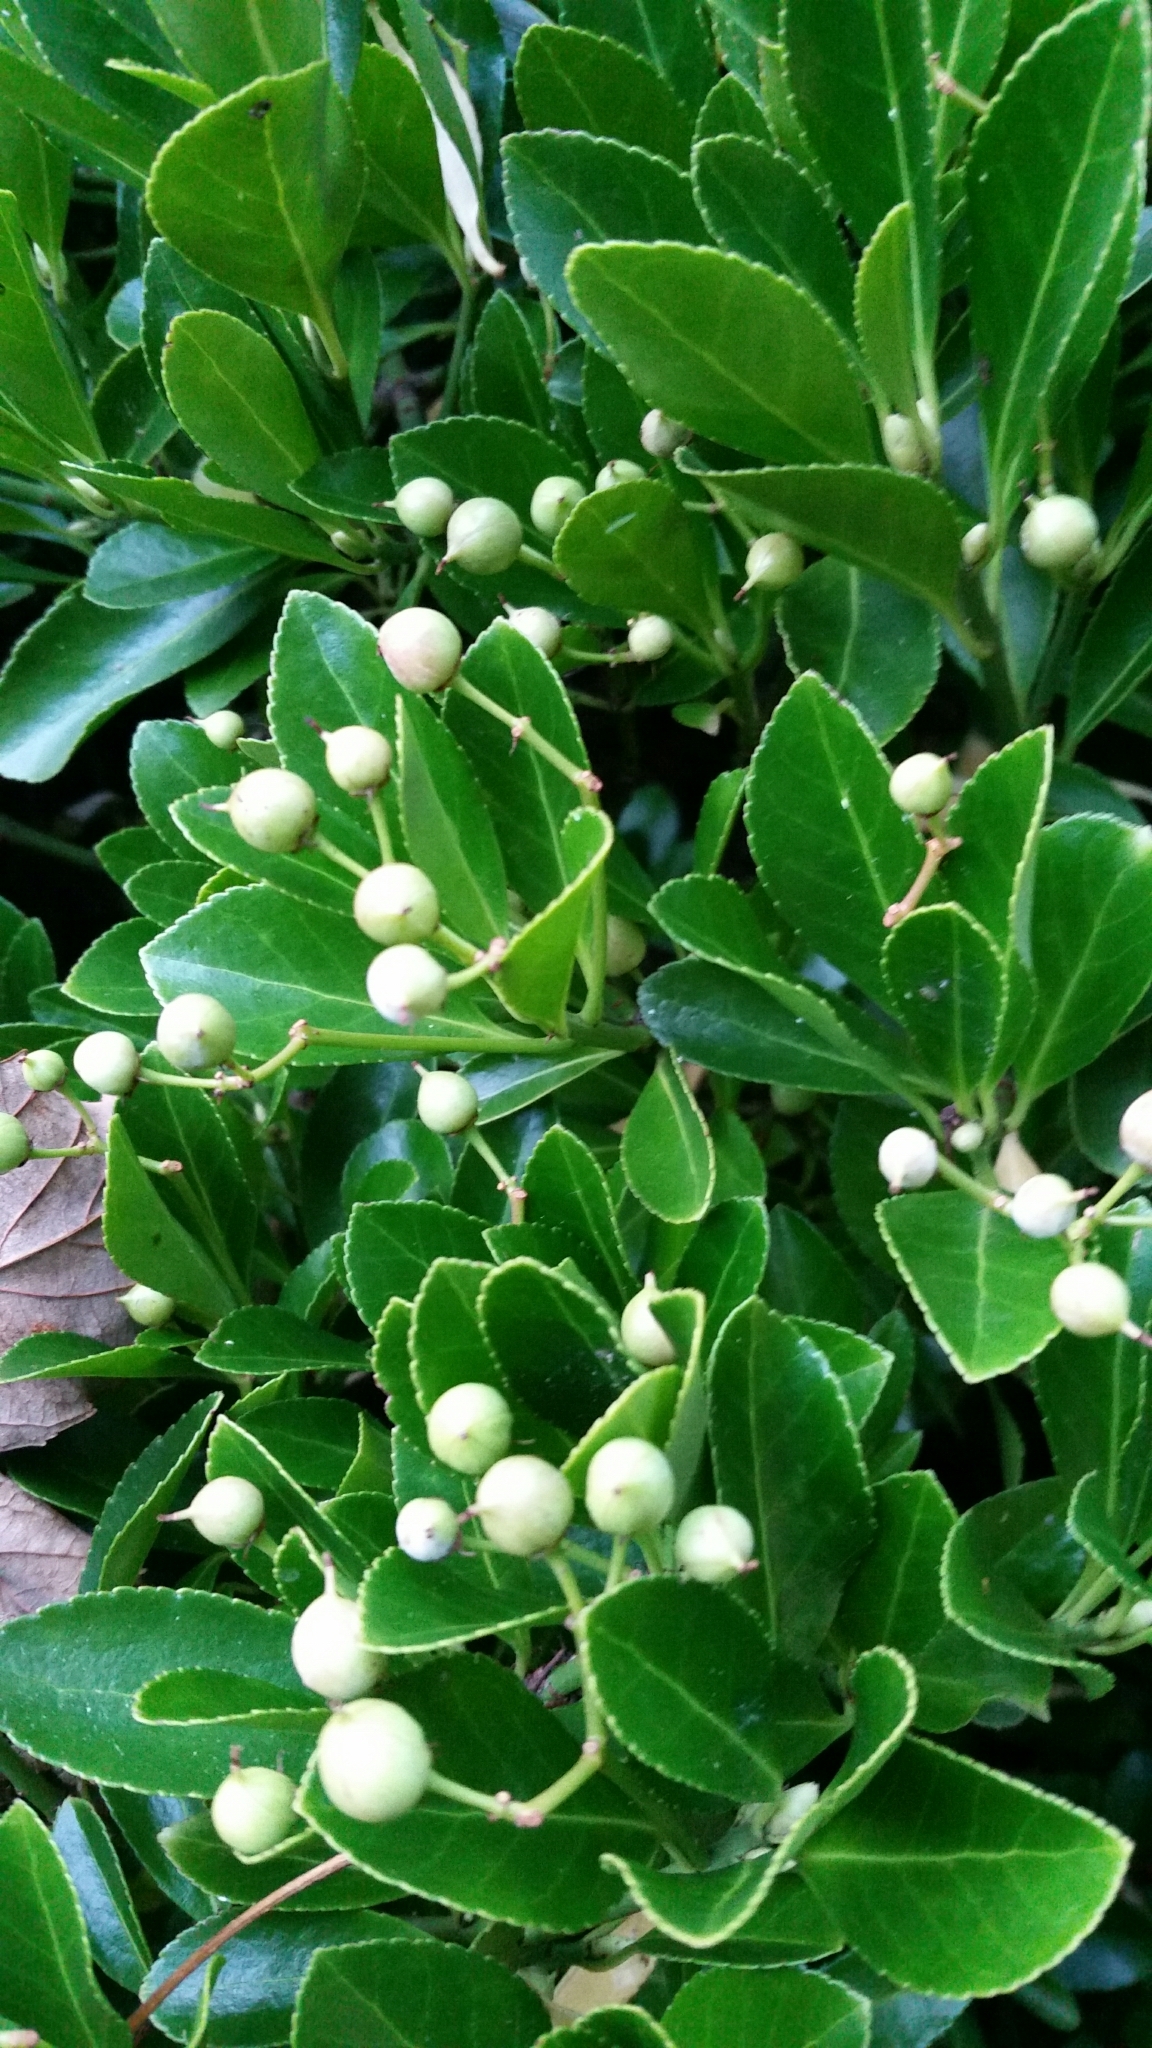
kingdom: Plantae
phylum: Tracheophyta
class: Magnoliopsida
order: Celastrales
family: Celastraceae
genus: Euonymus
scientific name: Euonymus japonicus
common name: Japanese spindletree
